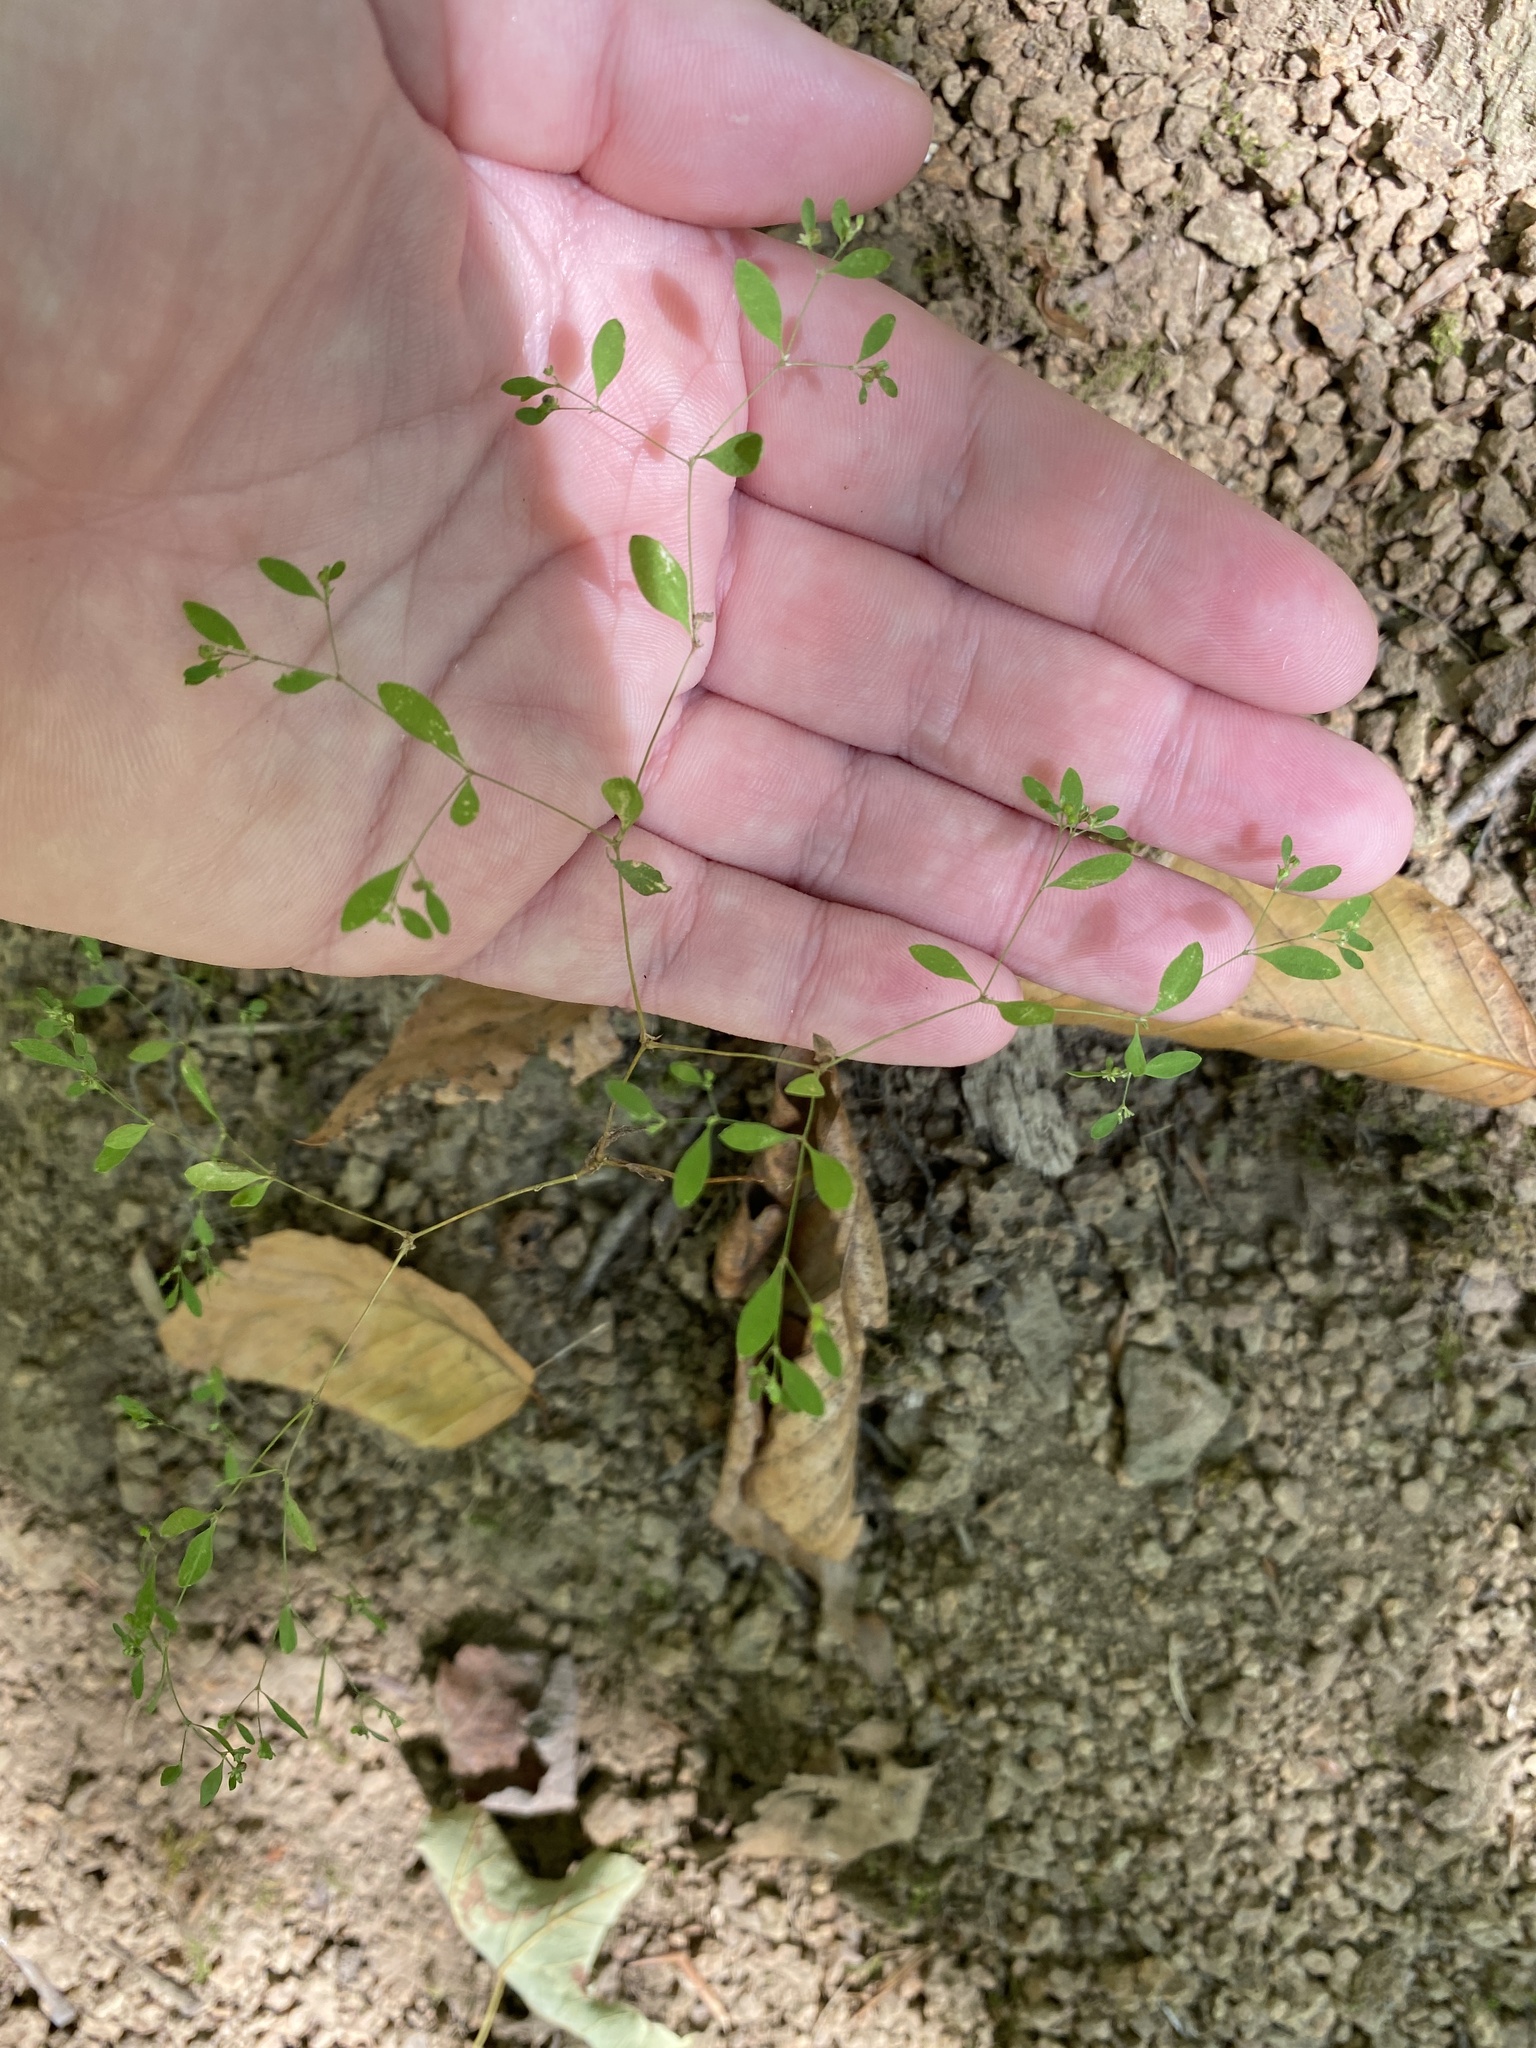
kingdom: Plantae
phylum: Tracheophyta
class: Magnoliopsida
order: Caryophyllales
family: Caryophyllaceae
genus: Paronychia
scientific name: Paronychia canadensis
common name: Canada forked nailwort
